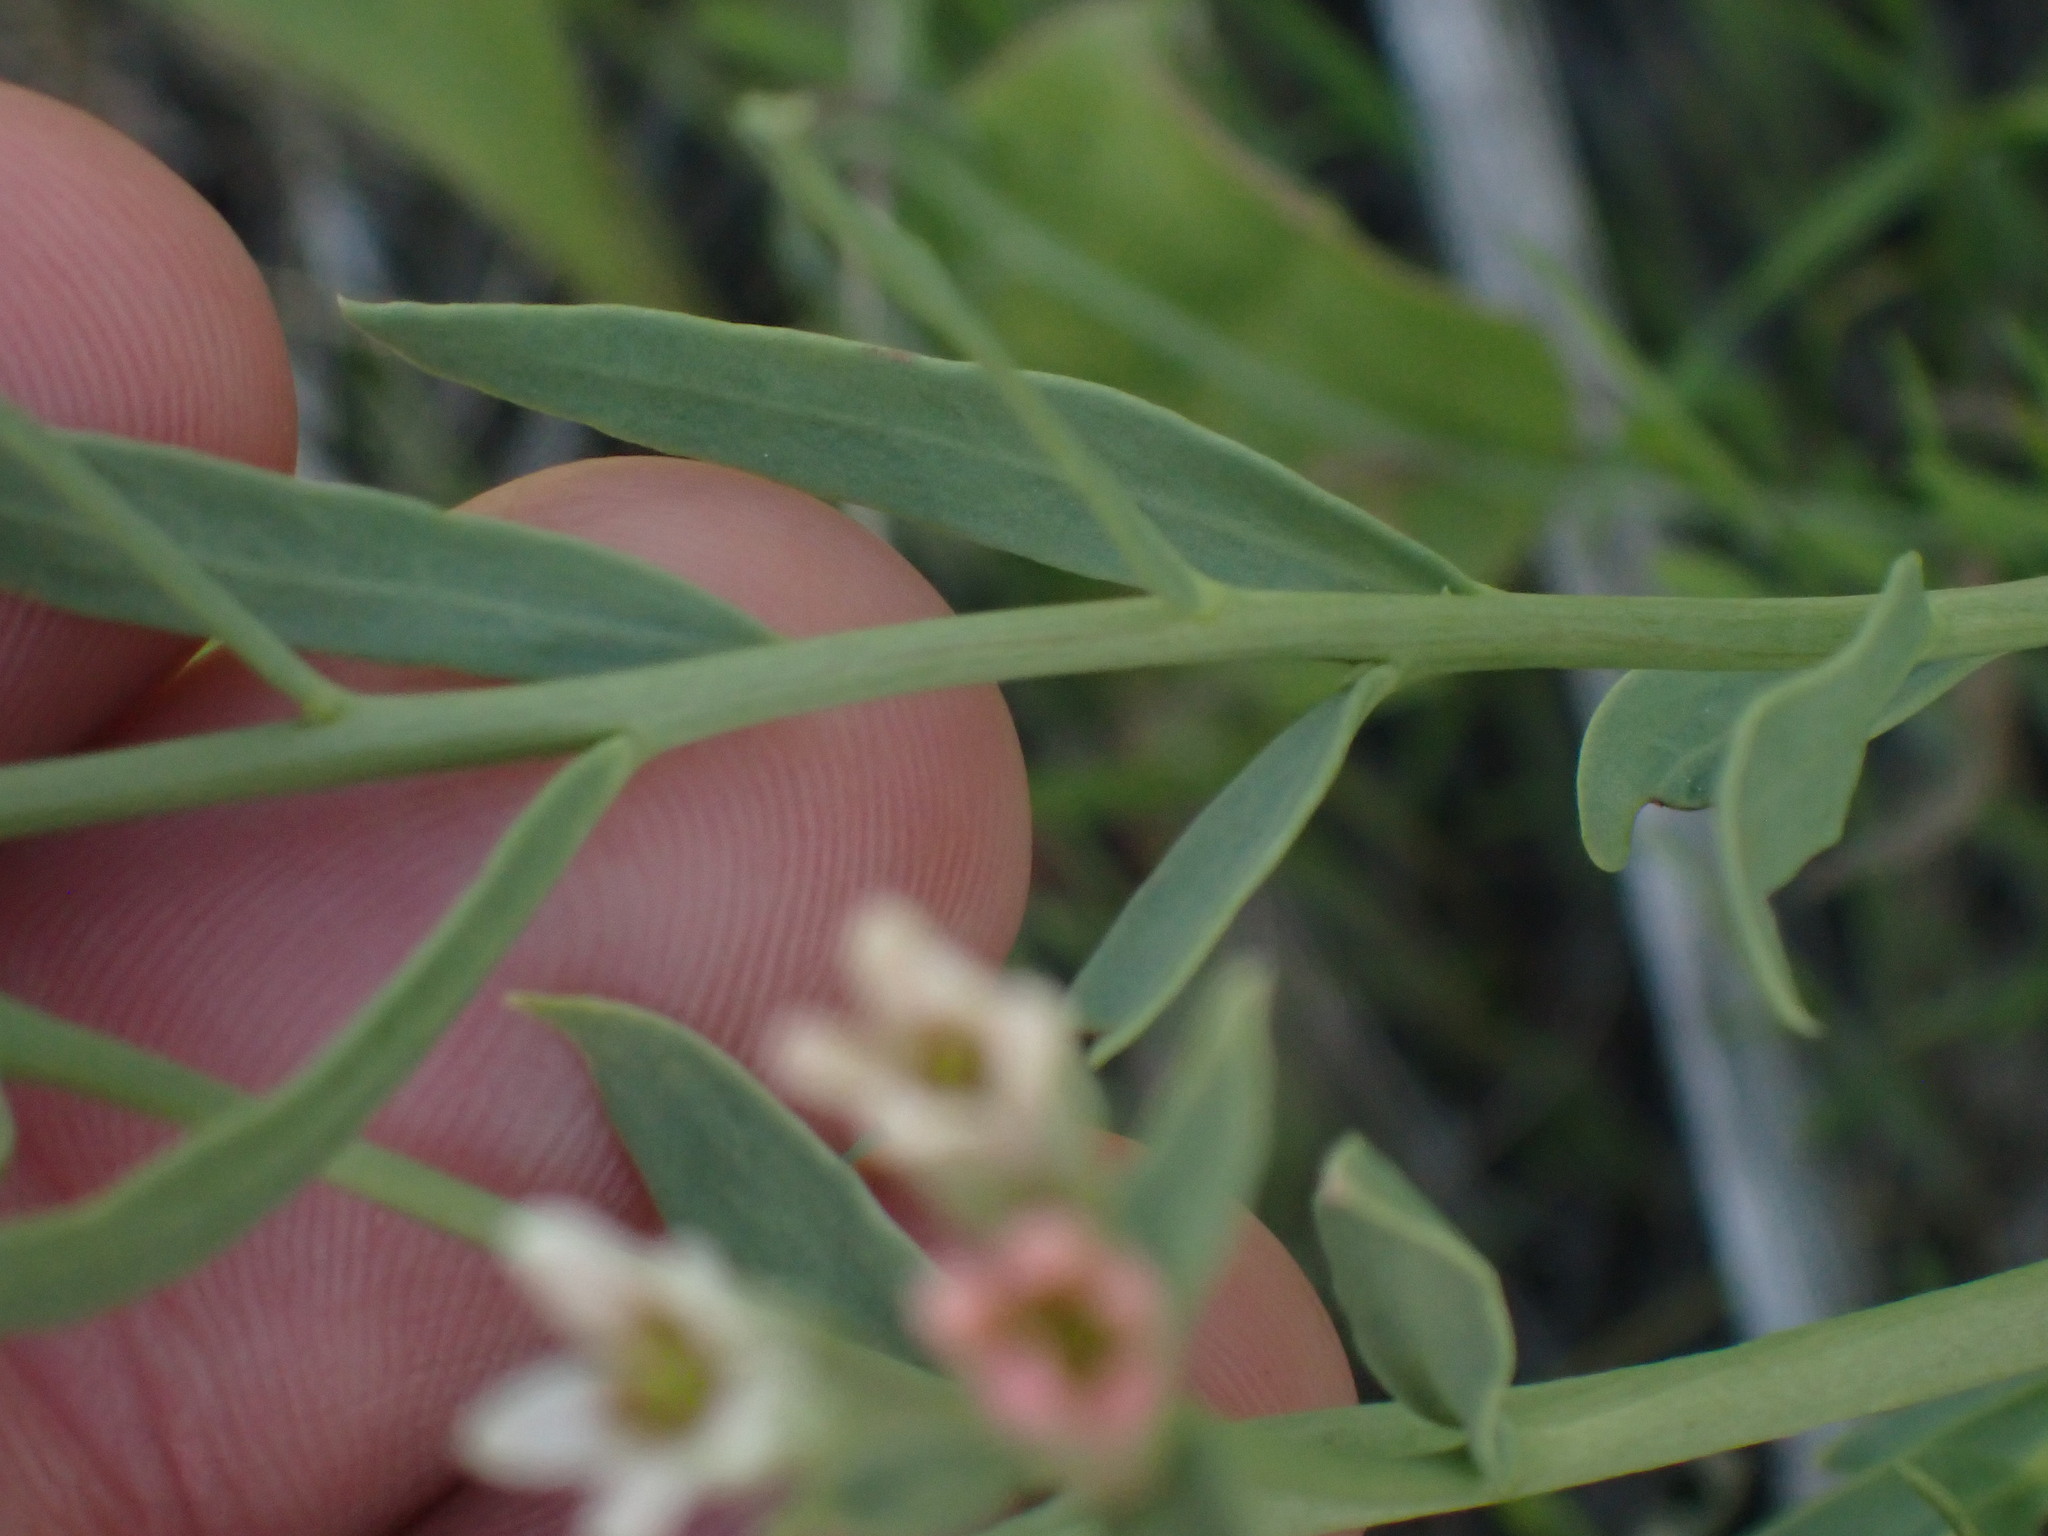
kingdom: Plantae
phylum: Tracheophyta
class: Magnoliopsida
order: Santalales
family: Comandraceae
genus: Comandra
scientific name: Comandra umbellata
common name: Bastard toadflax
